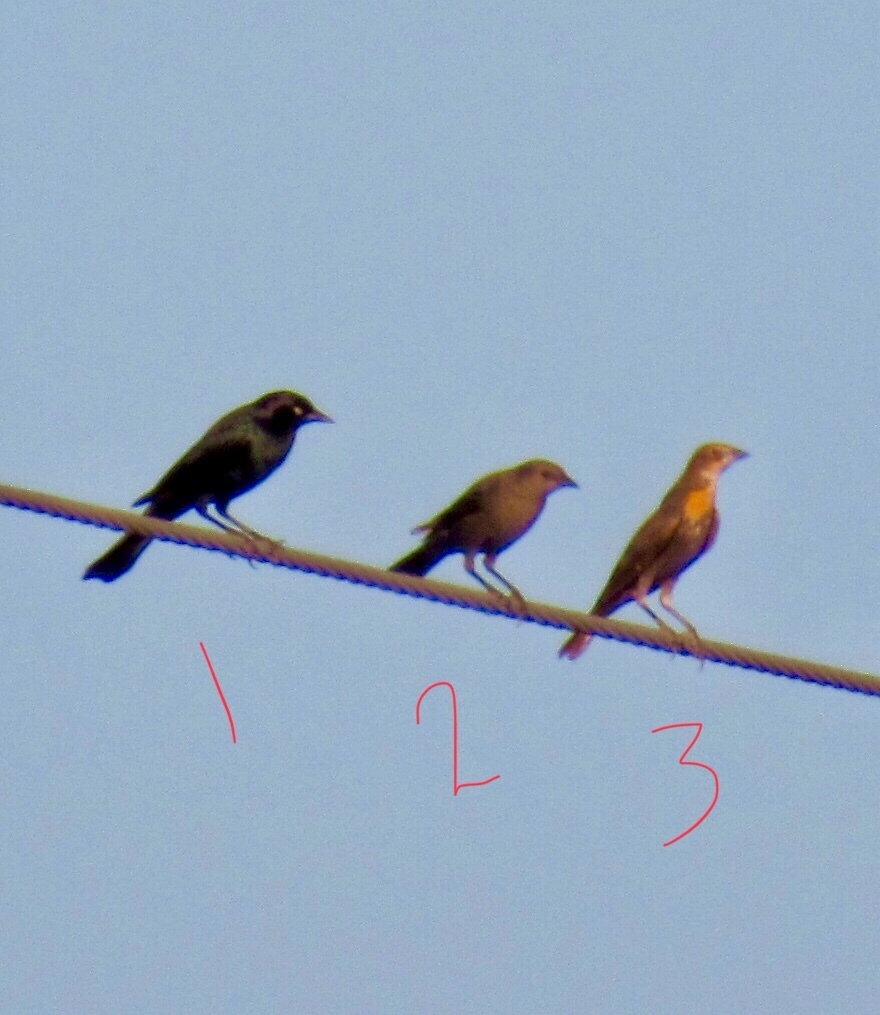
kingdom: Animalia
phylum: Chordata
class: Aves
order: Passeriformes
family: Icteridae
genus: Euphagus
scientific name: Euphagus cyanocephalus
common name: Brewer's blackbird
